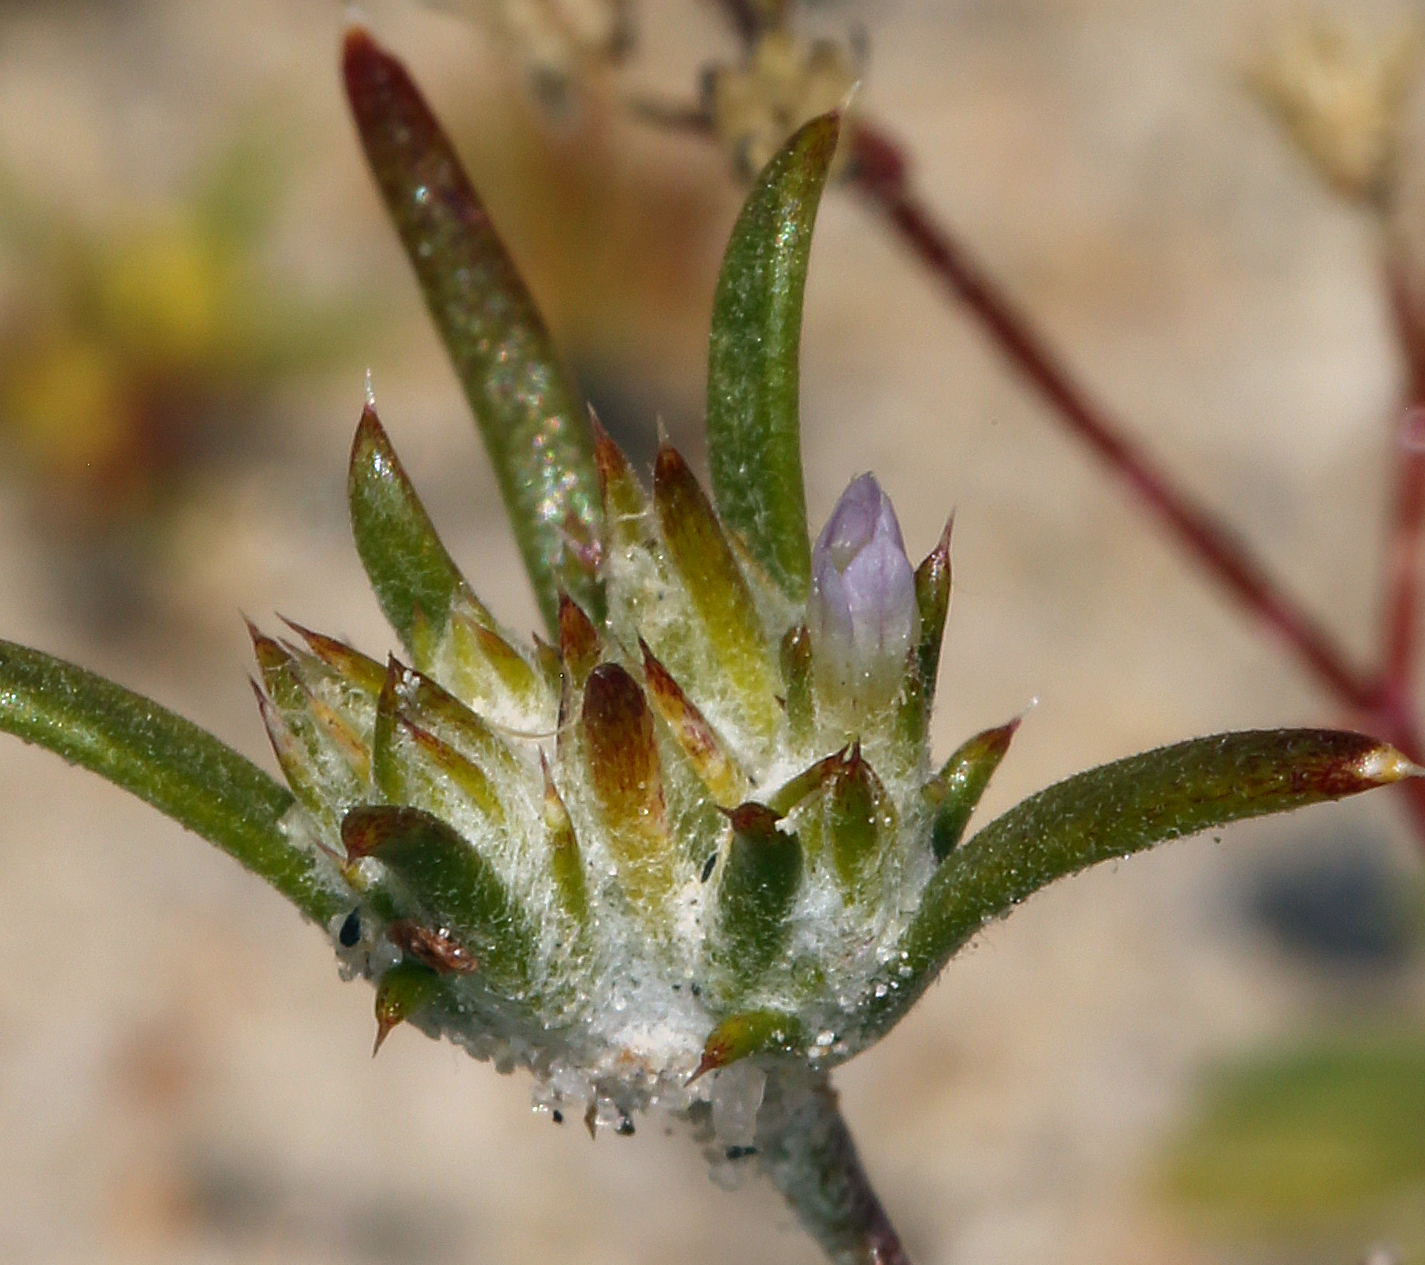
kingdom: Plantae
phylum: Tracheophyta
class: Magnoliopsida
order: Ericales
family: Polemoniaceae
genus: Eriastrum
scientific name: Eriastrum rosamondense
